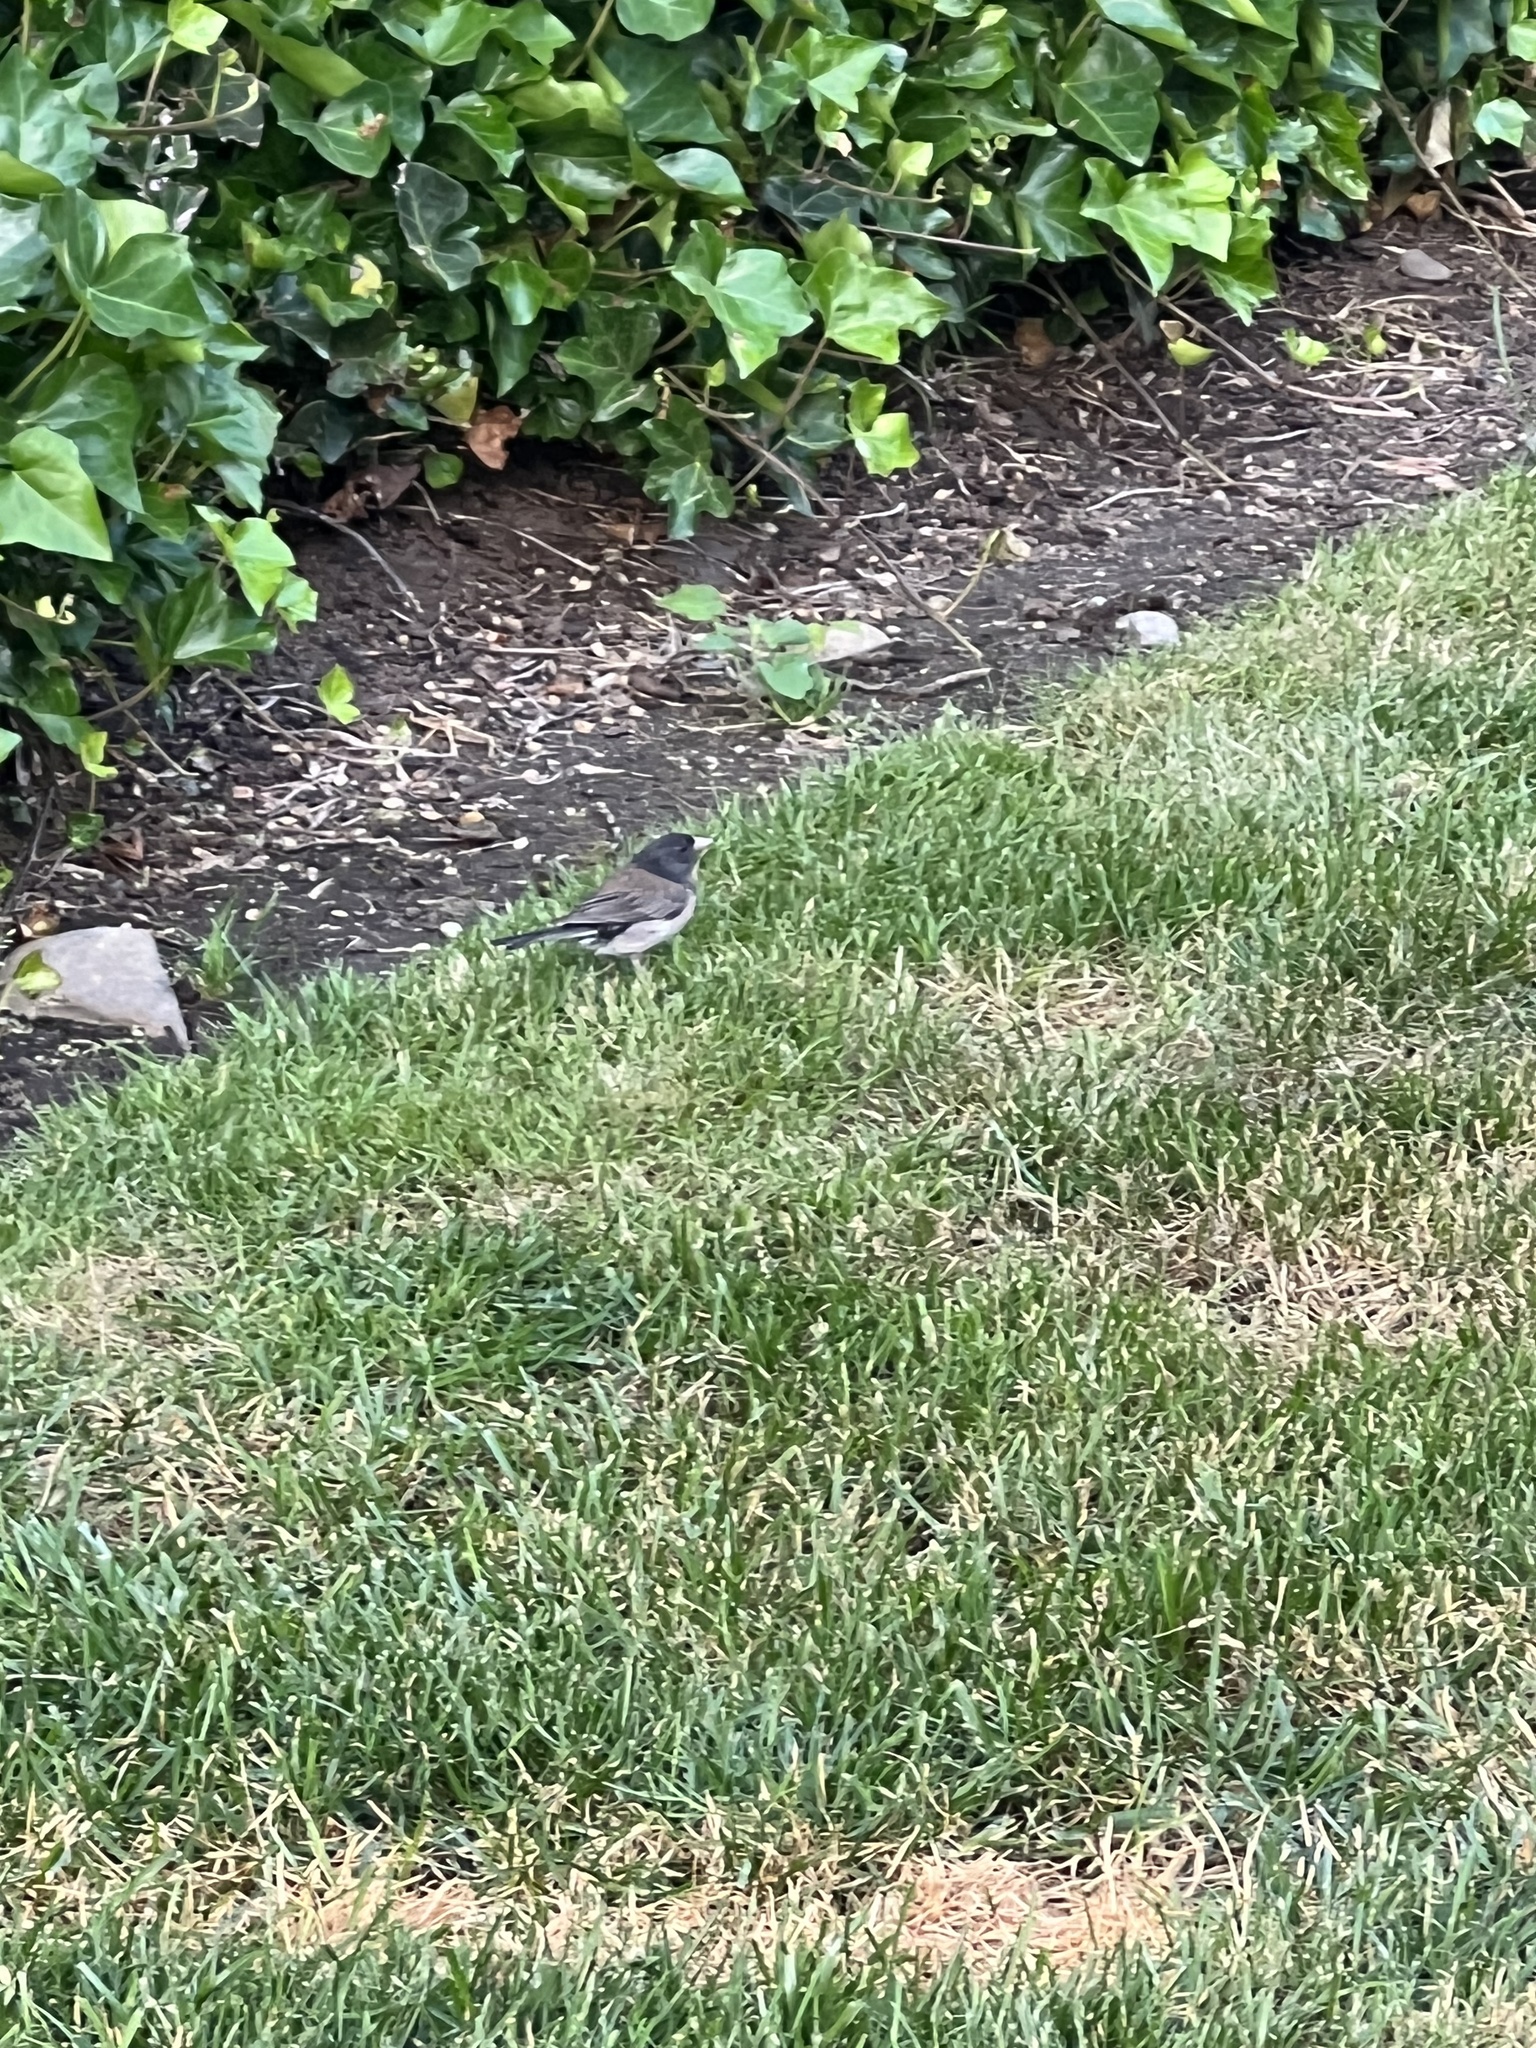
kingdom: Animalia
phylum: Chordata
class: Aves
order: Passeriformes
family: Passerellidae
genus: Junco
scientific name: Junco hyemalis
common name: Dark-eyed junco
